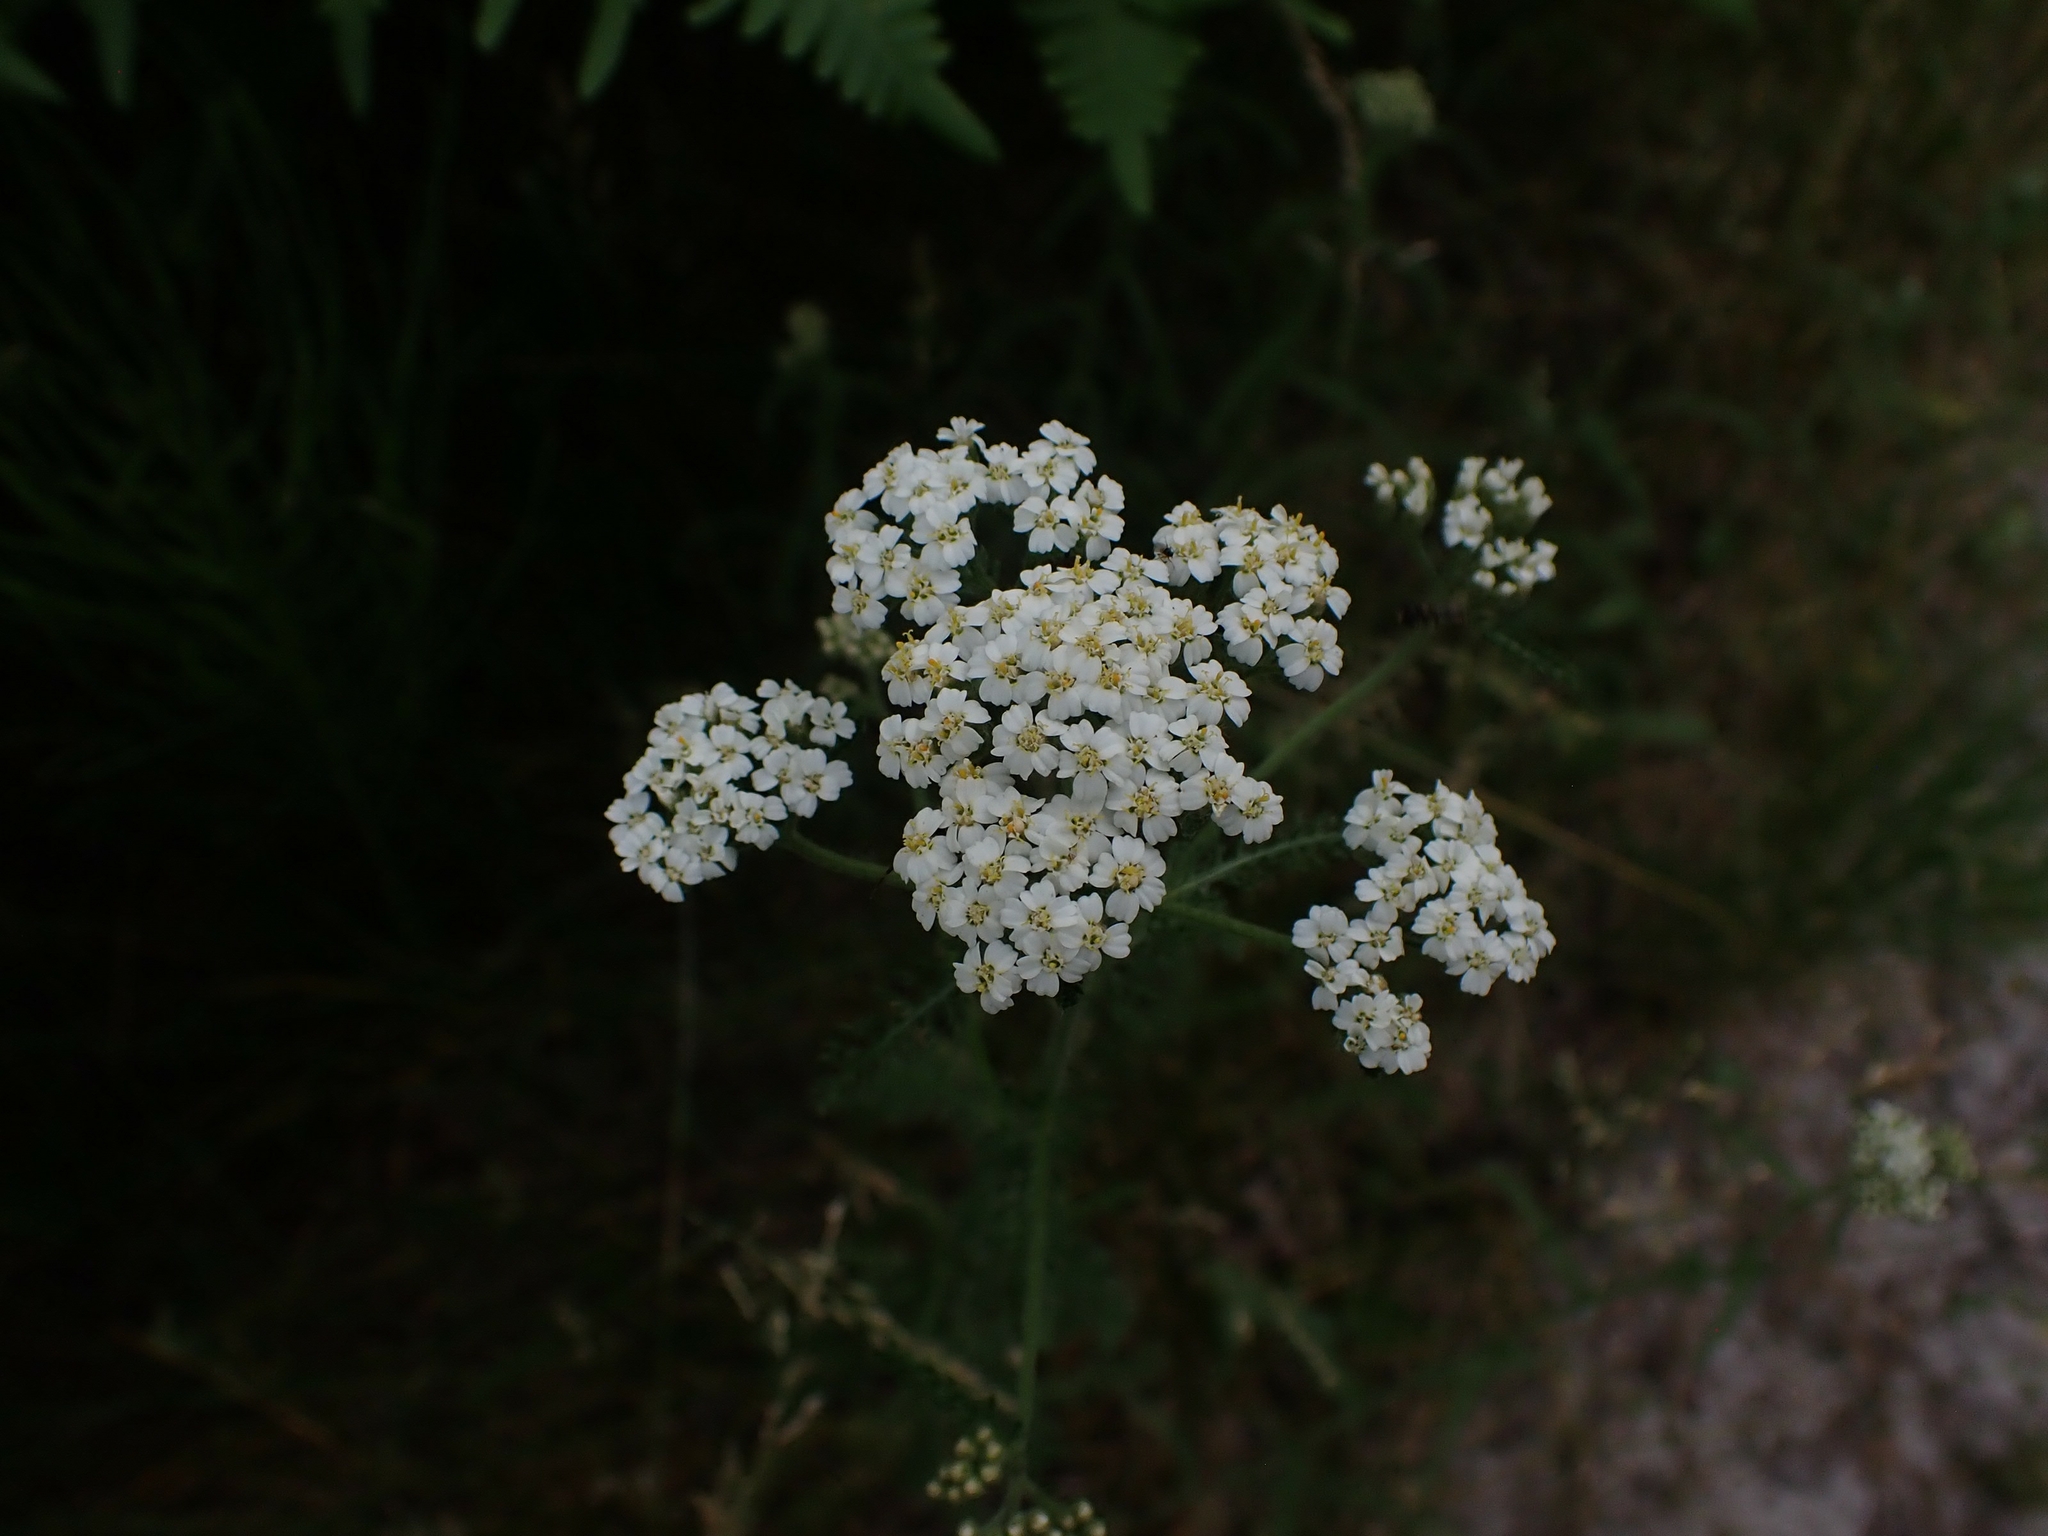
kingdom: Plantae
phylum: Tracheophyta
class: Magnoliopsida
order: Asterales
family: Asteraceae
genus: Achillea
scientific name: Achillea millefolium
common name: Yarrow
